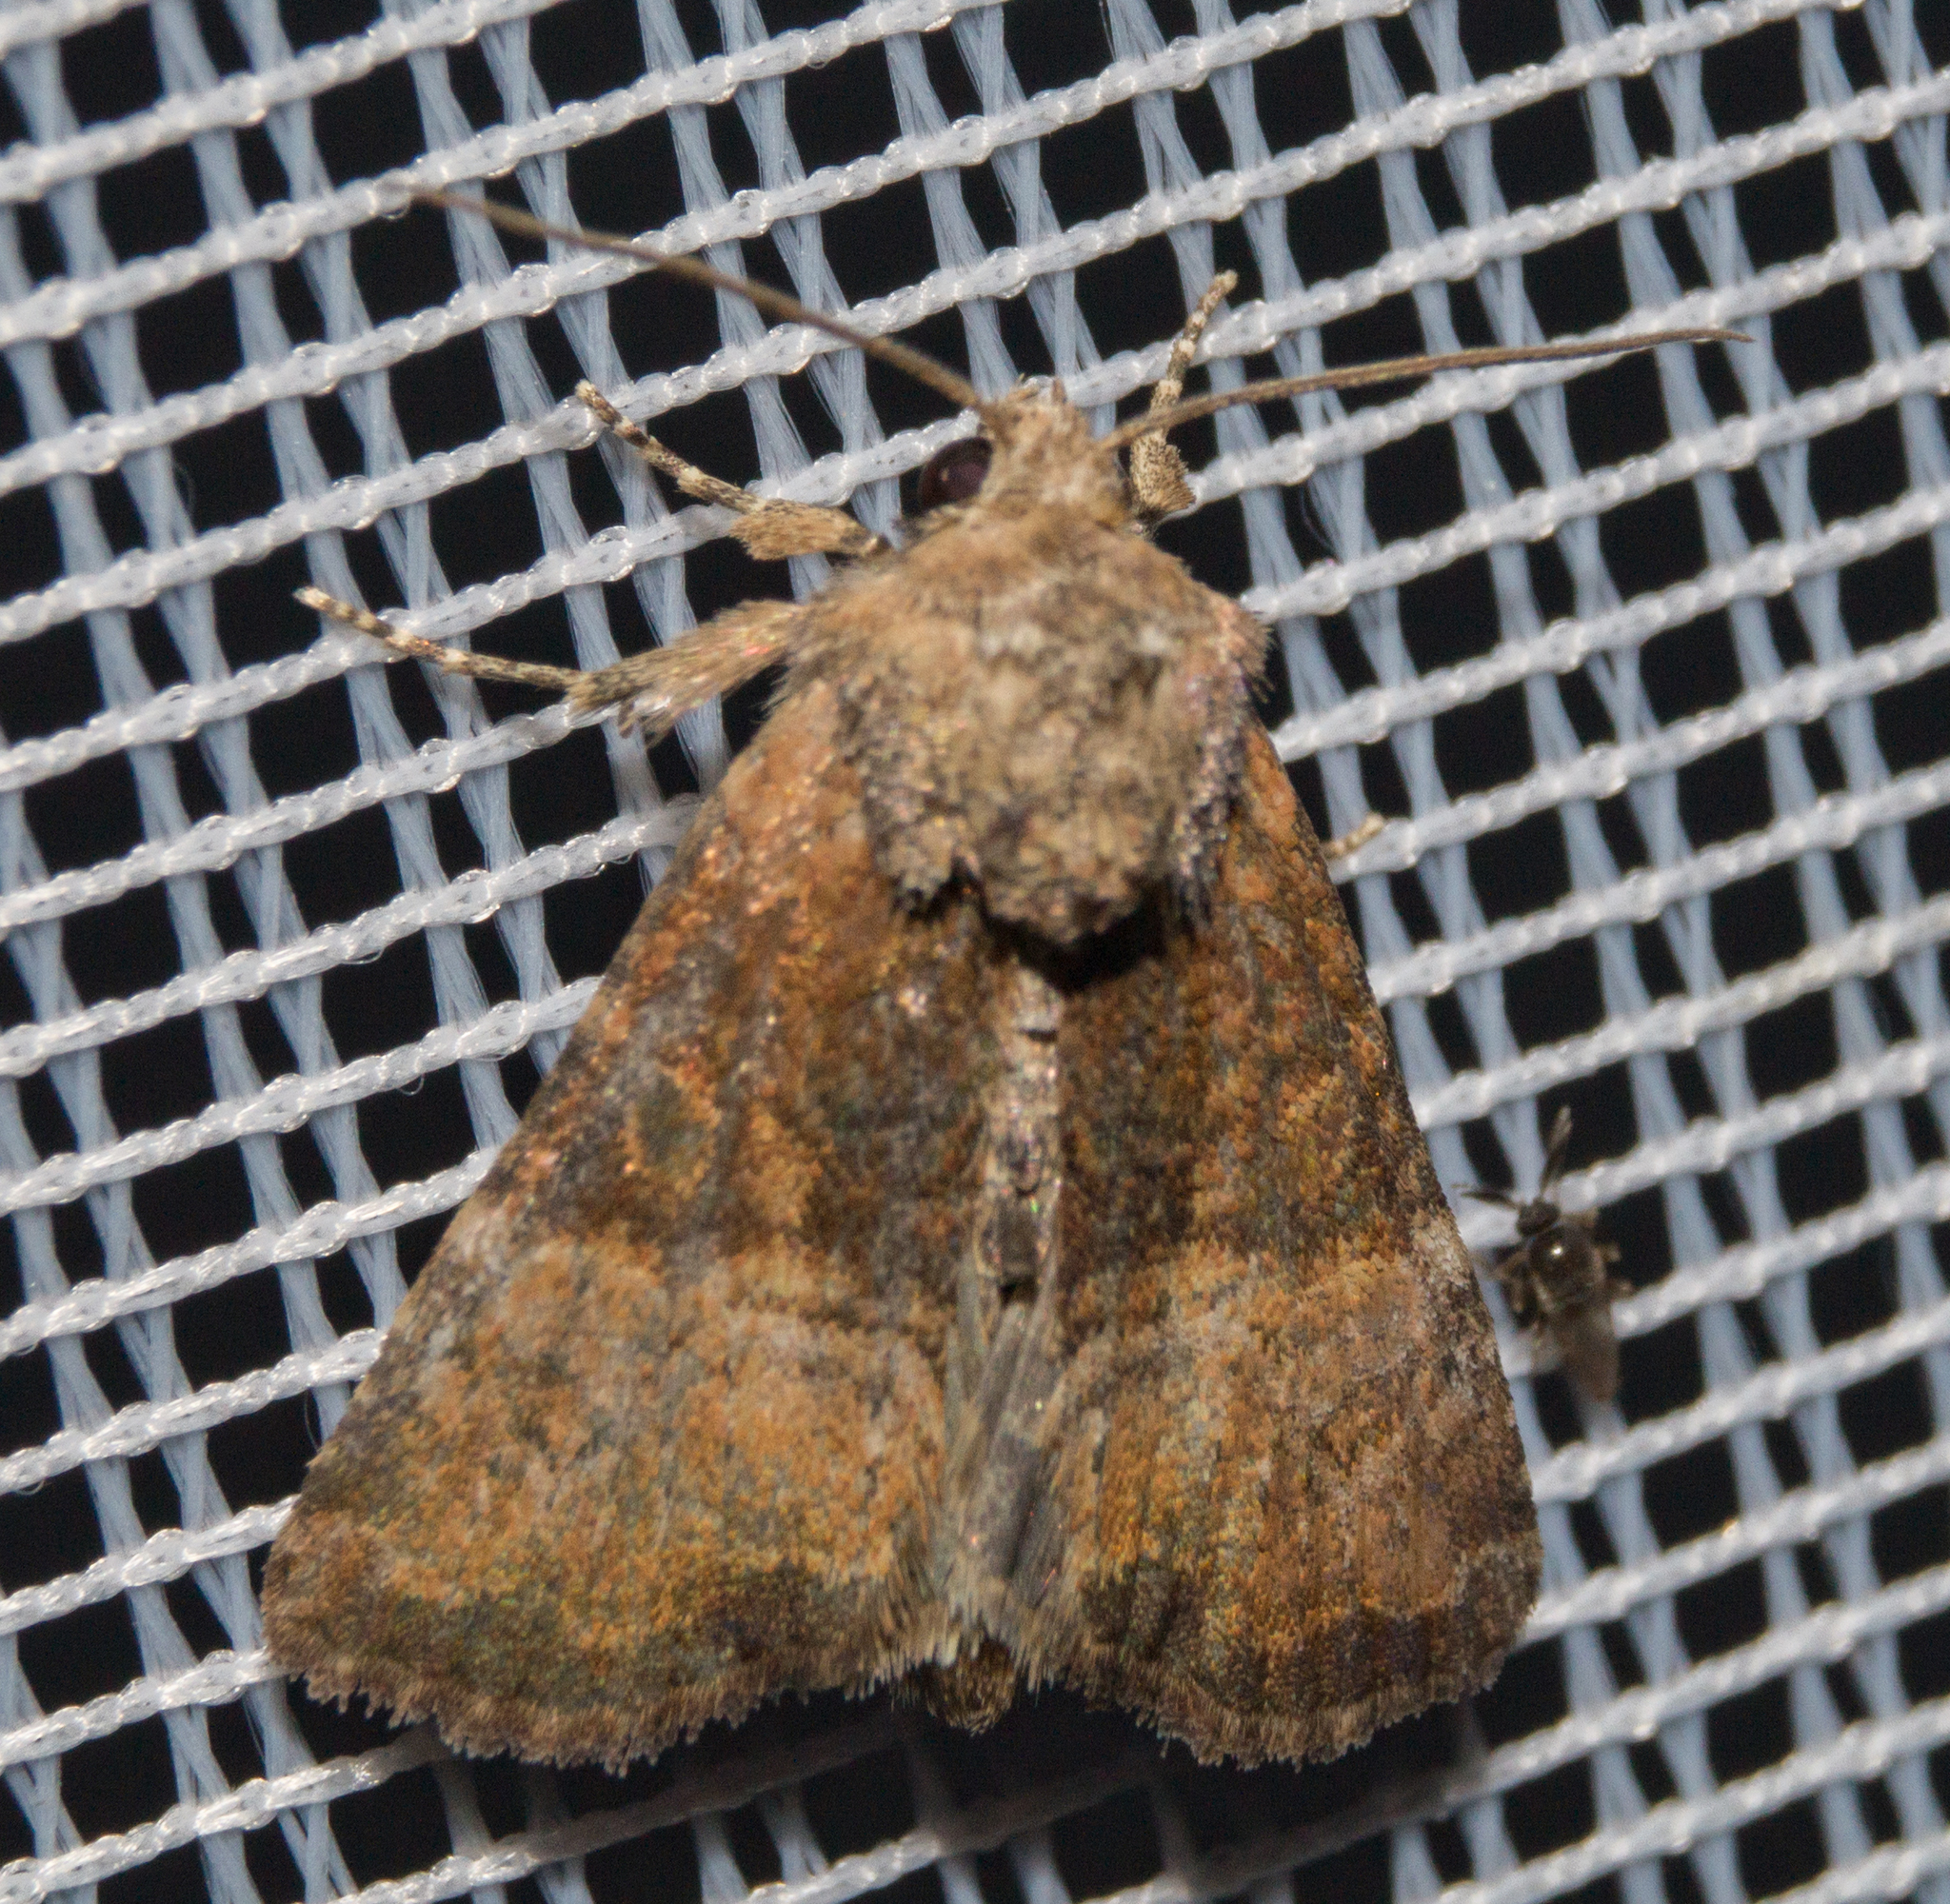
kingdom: Animalia
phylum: Arthropoda
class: Insecta
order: Lepidoptera
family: Noctuidae
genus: Mesoligia
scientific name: Mesoligia furuncula
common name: Cloaked minor
